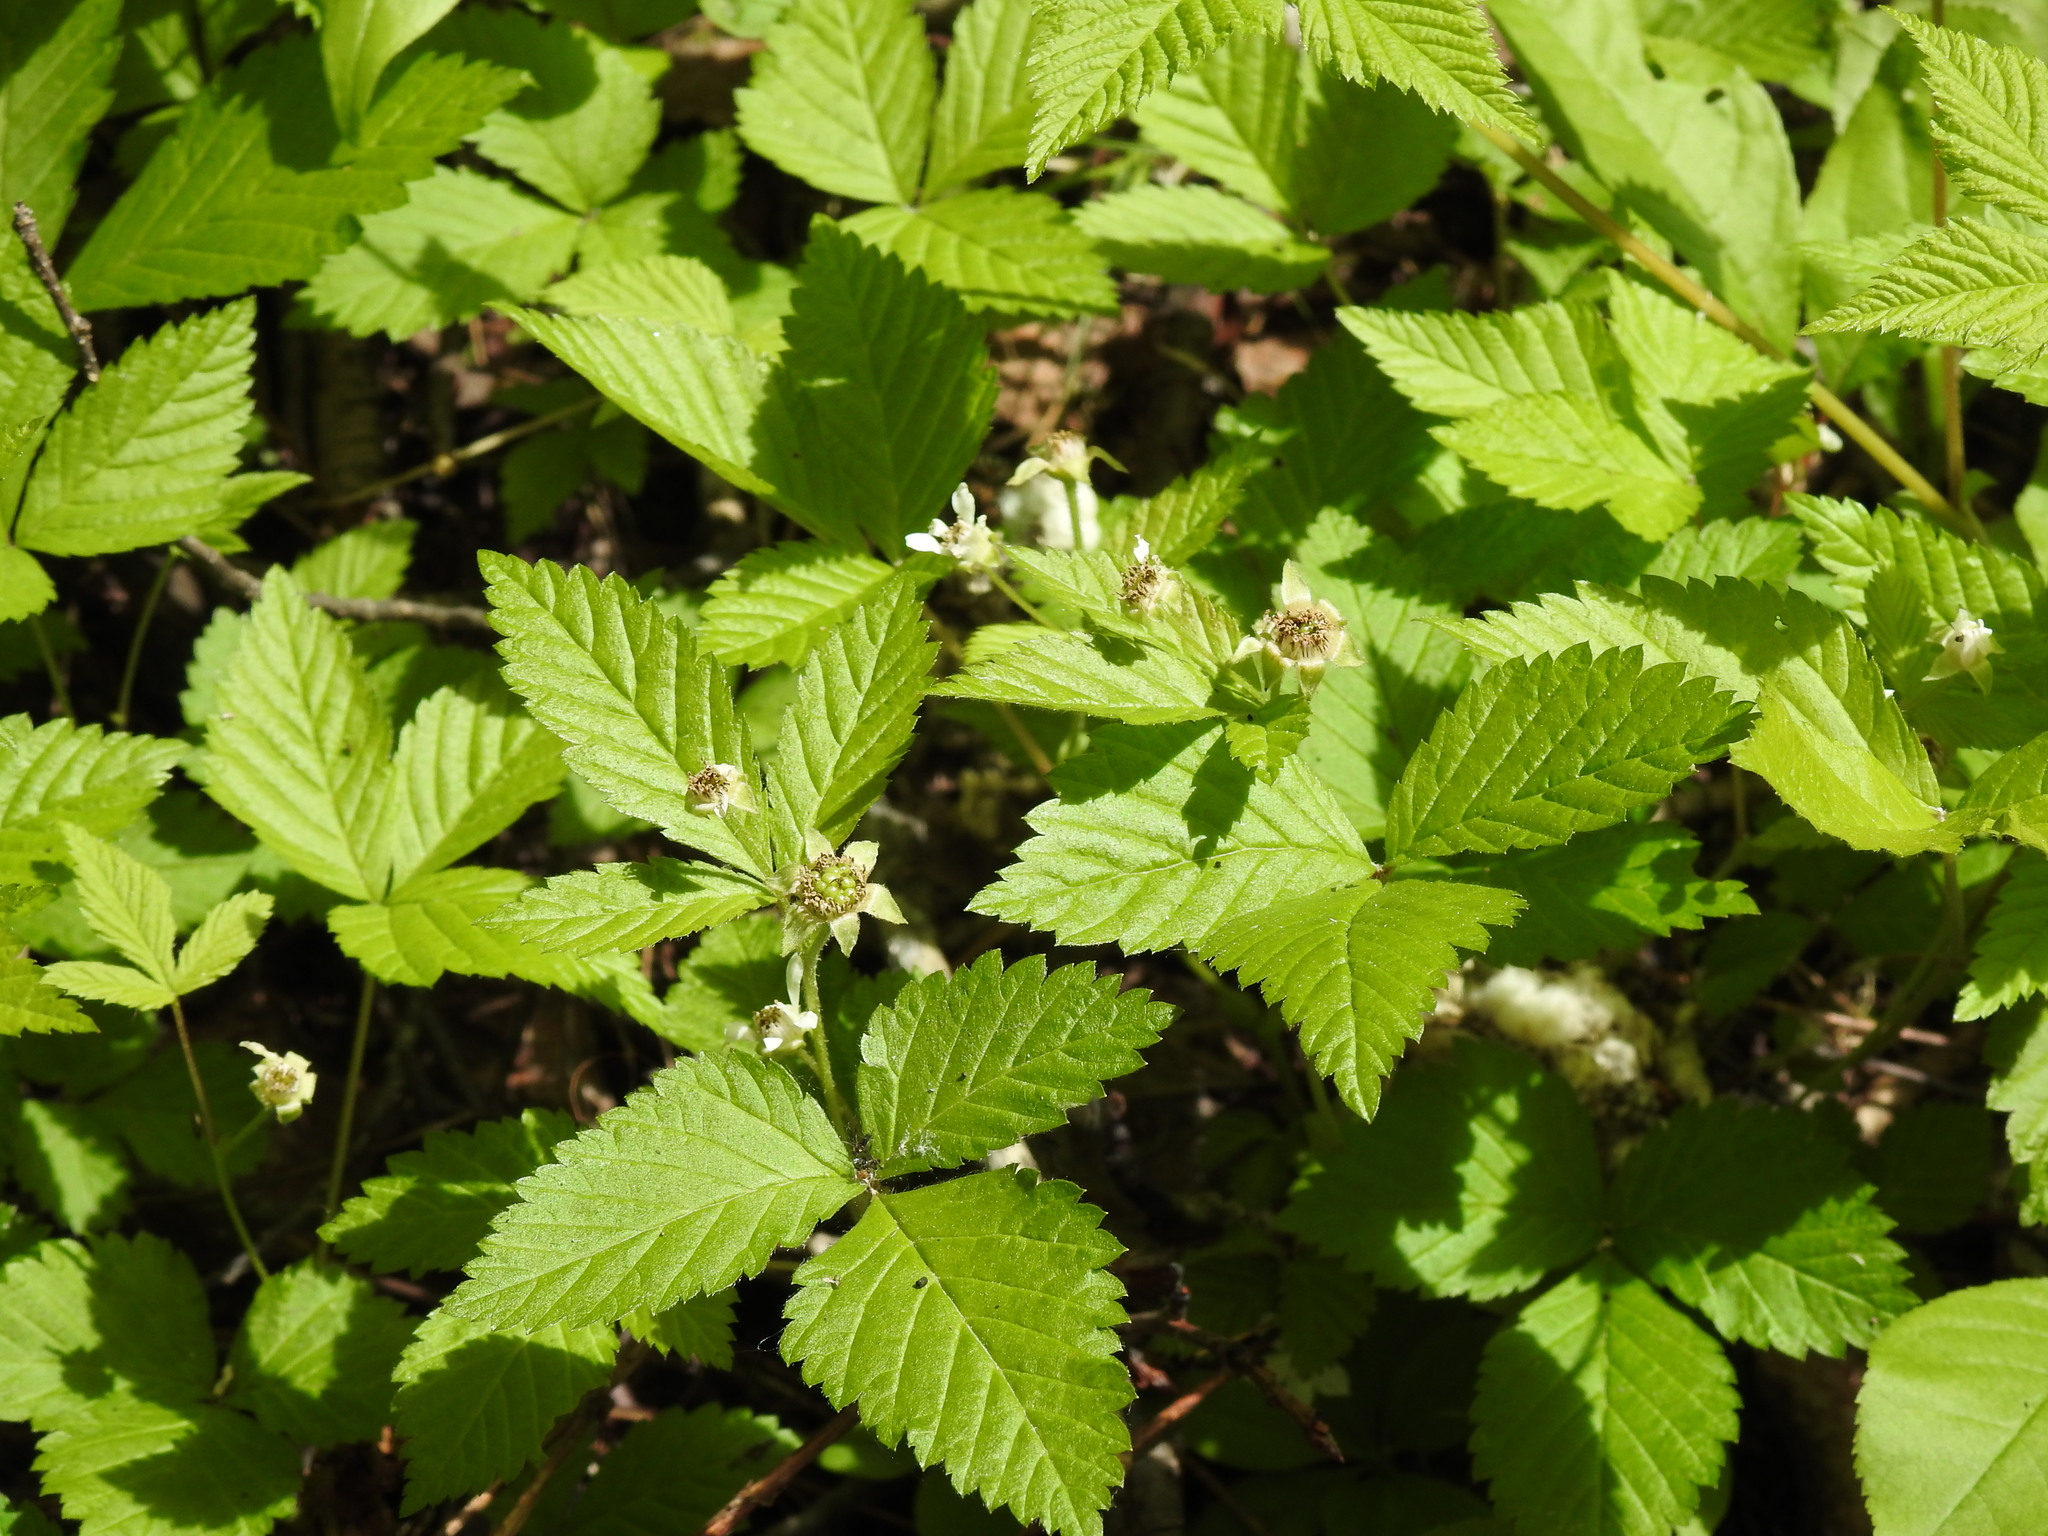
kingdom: Plantae
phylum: Tracheophyta
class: Magnoliopsida
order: Rosales
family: Rosaceae
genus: Rubus
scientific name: Rubus pubescens
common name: Dwarf raspberry
